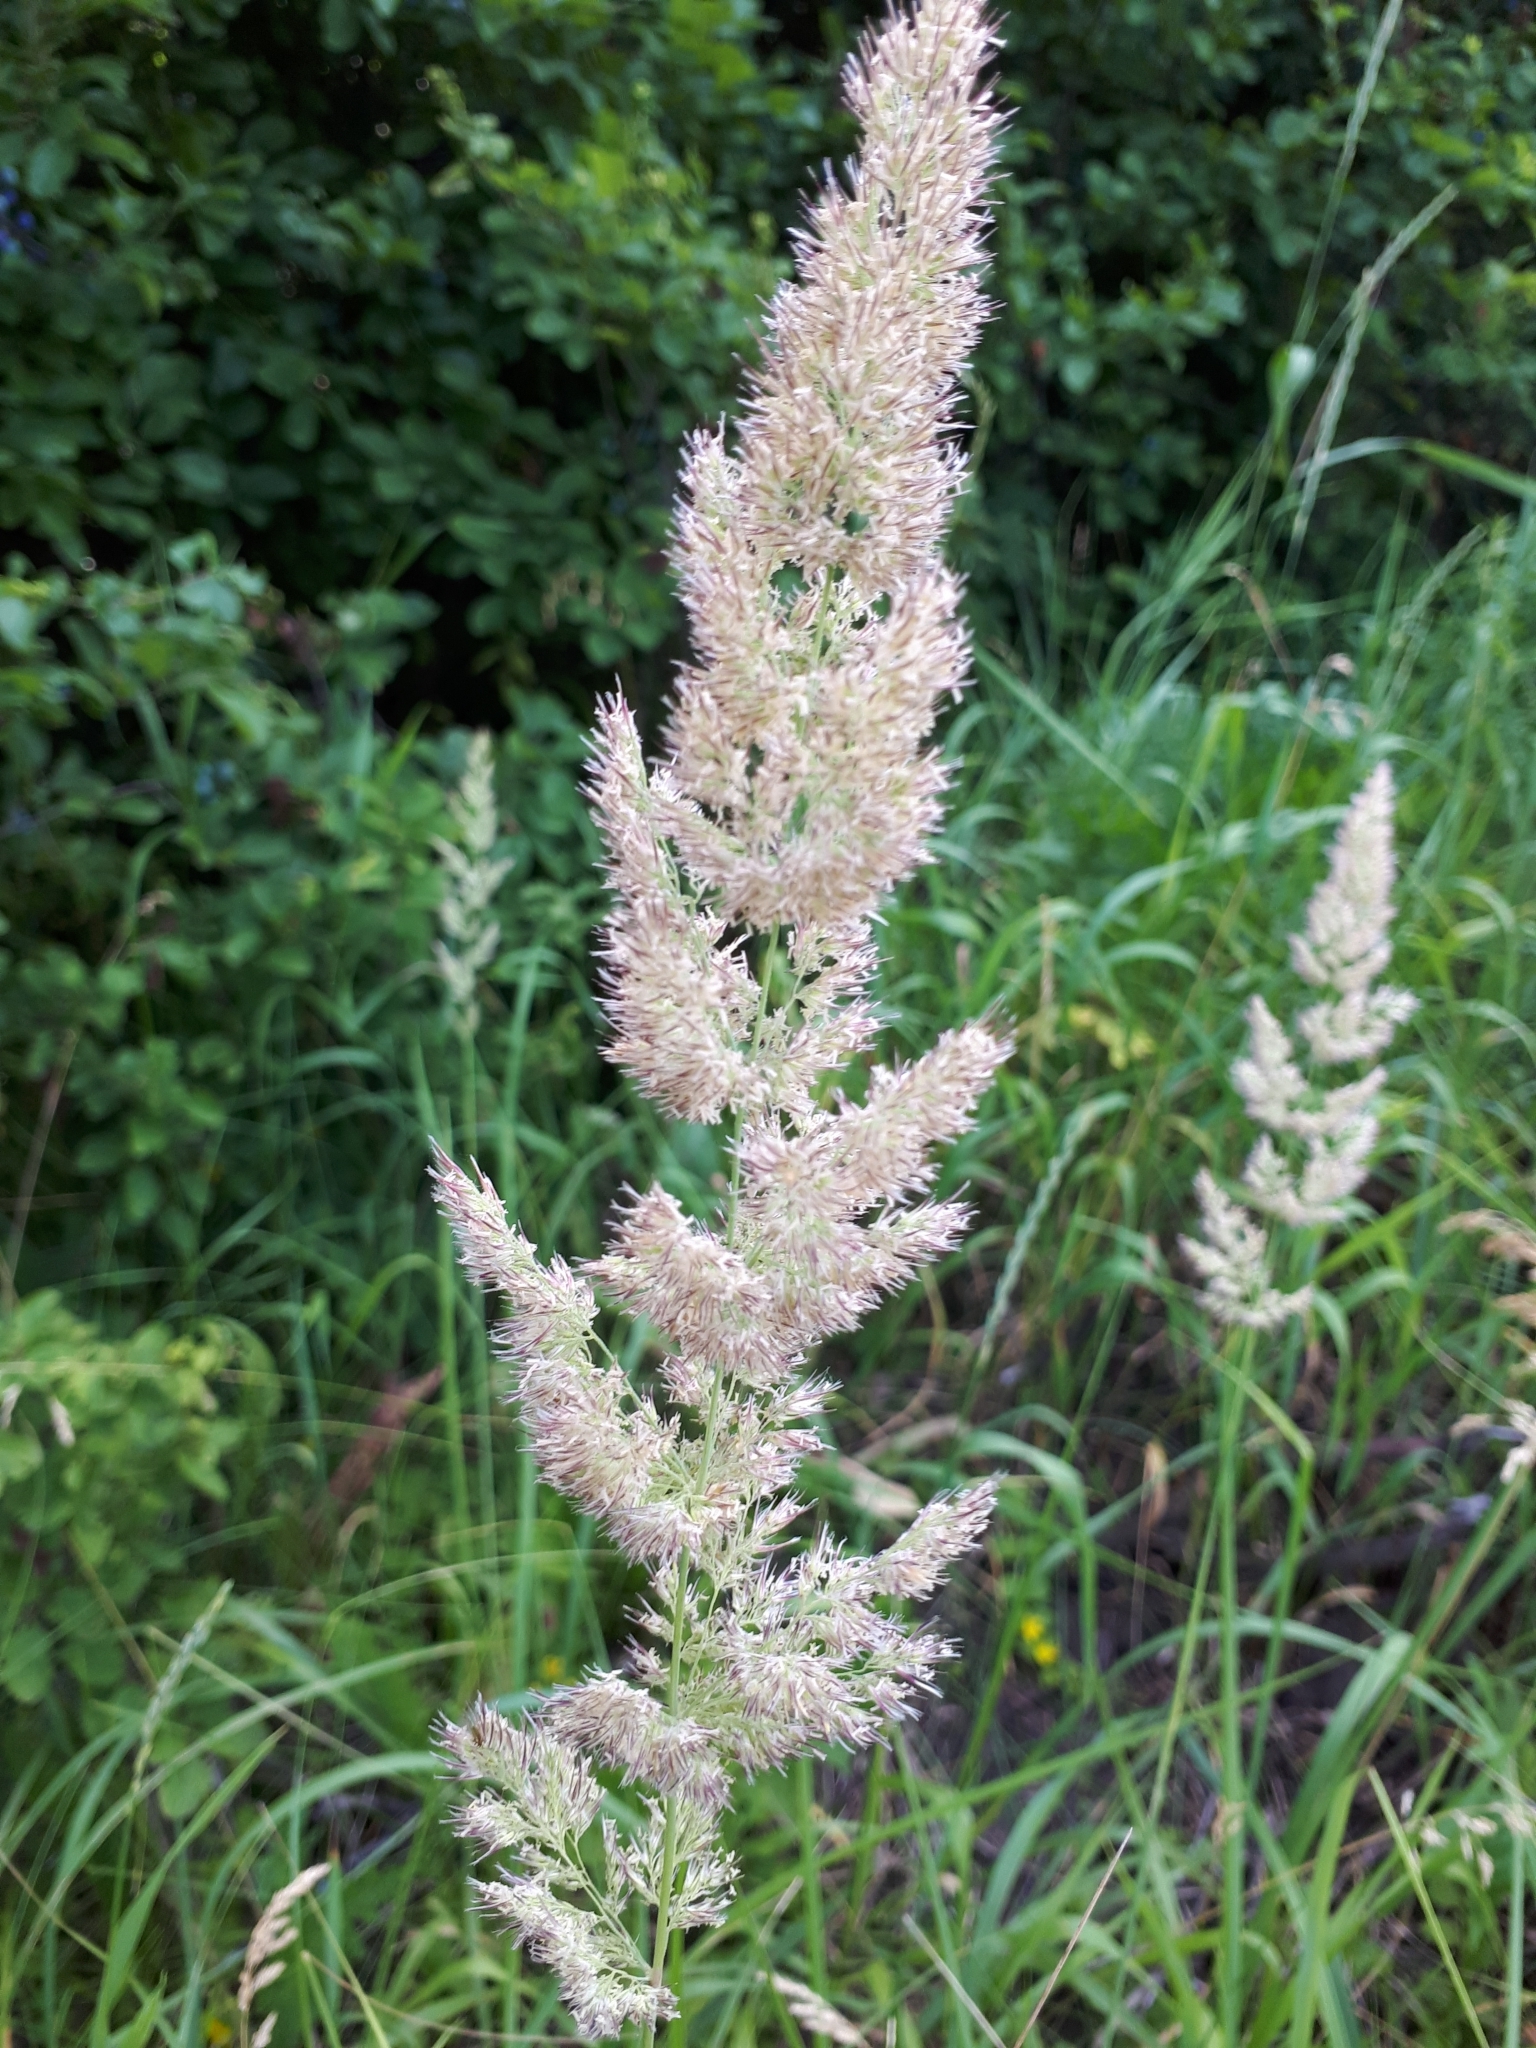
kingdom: Plantae
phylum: Tracheophyta
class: Liliopsida
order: Poales
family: Poaceae
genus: Calamagrostis
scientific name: Calamagrostis epigejos
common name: Wood small-reed
